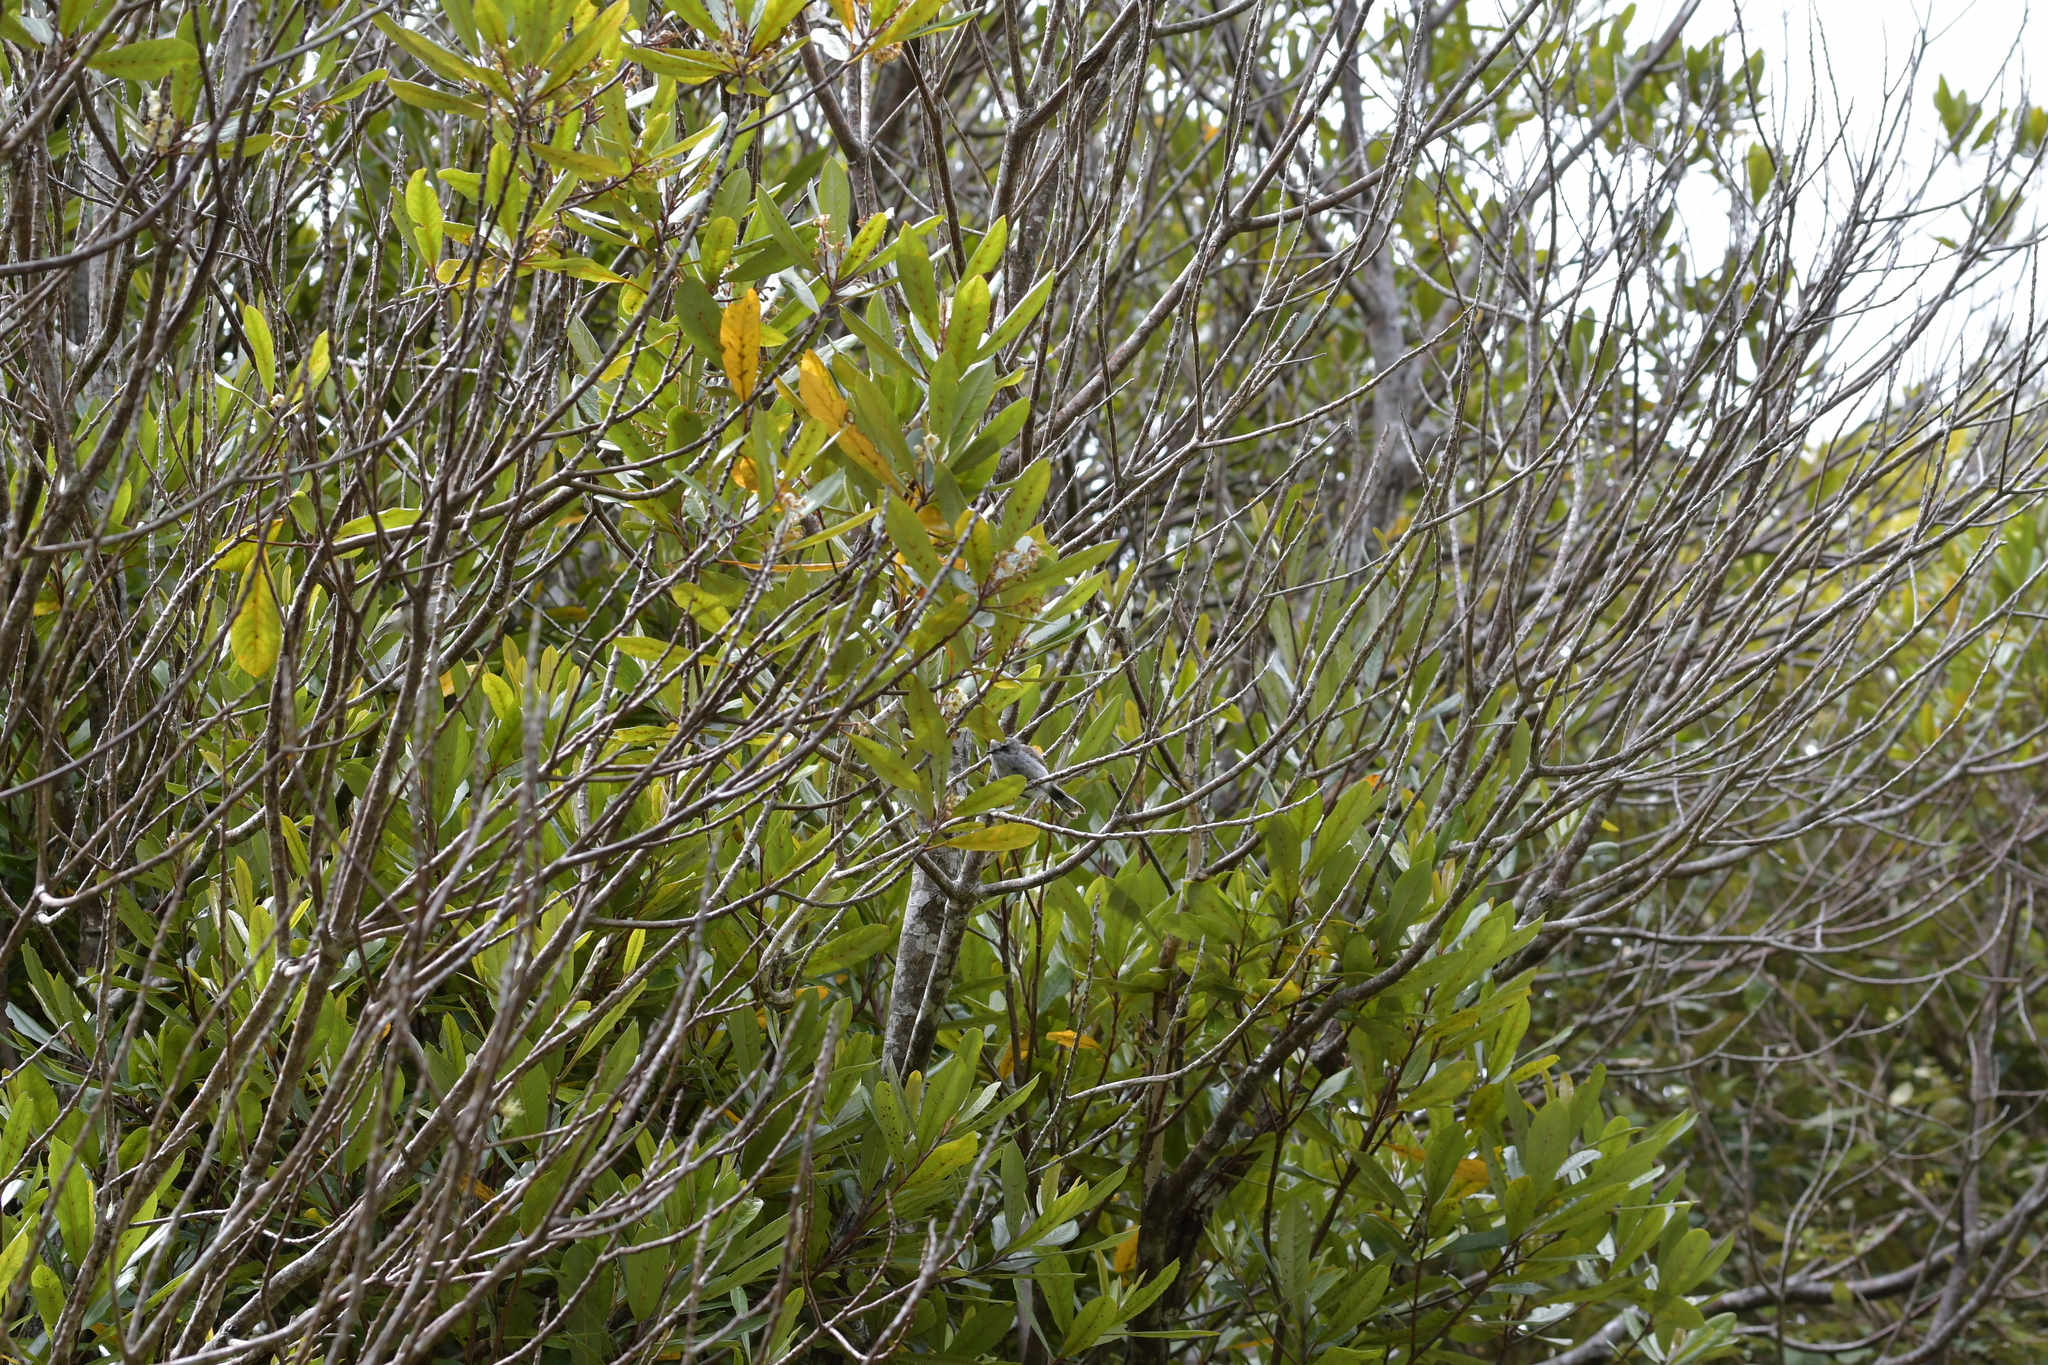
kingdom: Animalia
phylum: Chordata
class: Aves
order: Passeriformes
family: Acanthizidae
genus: Gerygone
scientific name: Gerygone igata
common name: Grey gerygone
